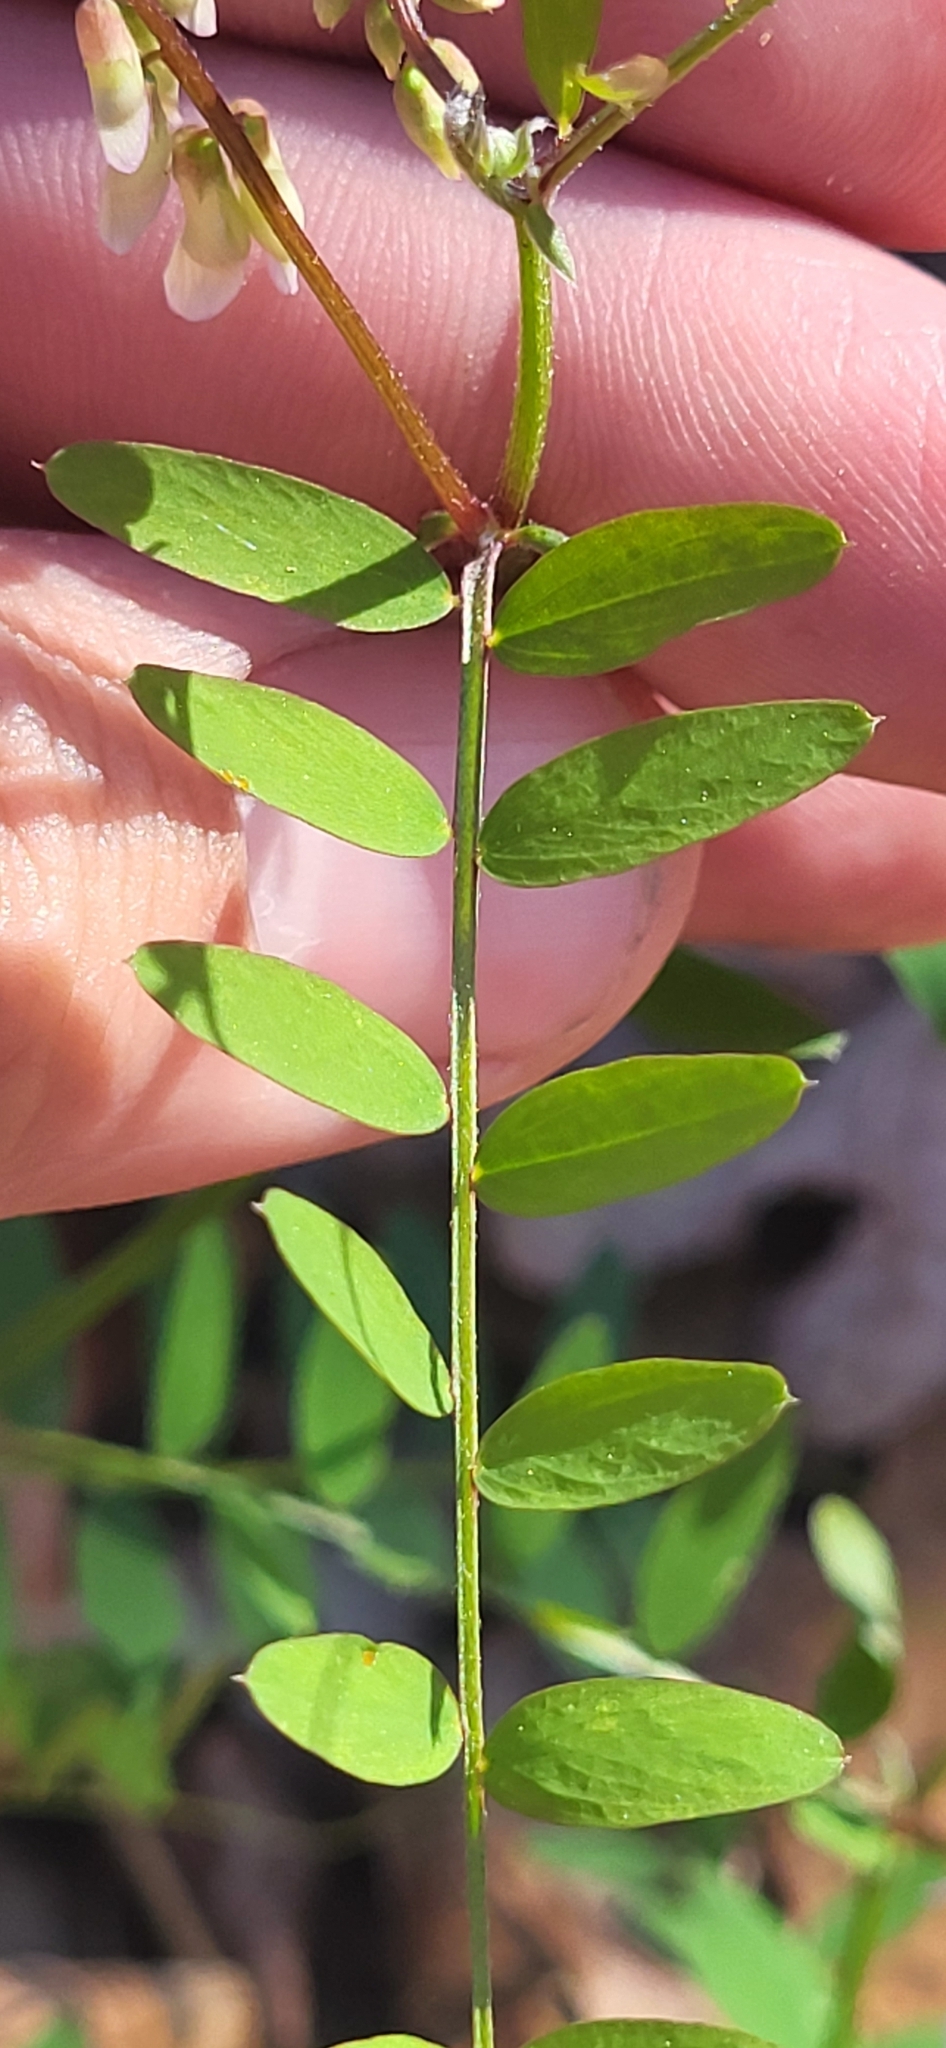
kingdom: Plantae
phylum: Tracheophyta
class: Magnoliopsida
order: Fabales
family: Fabaceae
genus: Vicia
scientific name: Vicia caroliniana
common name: Carolina vetch
